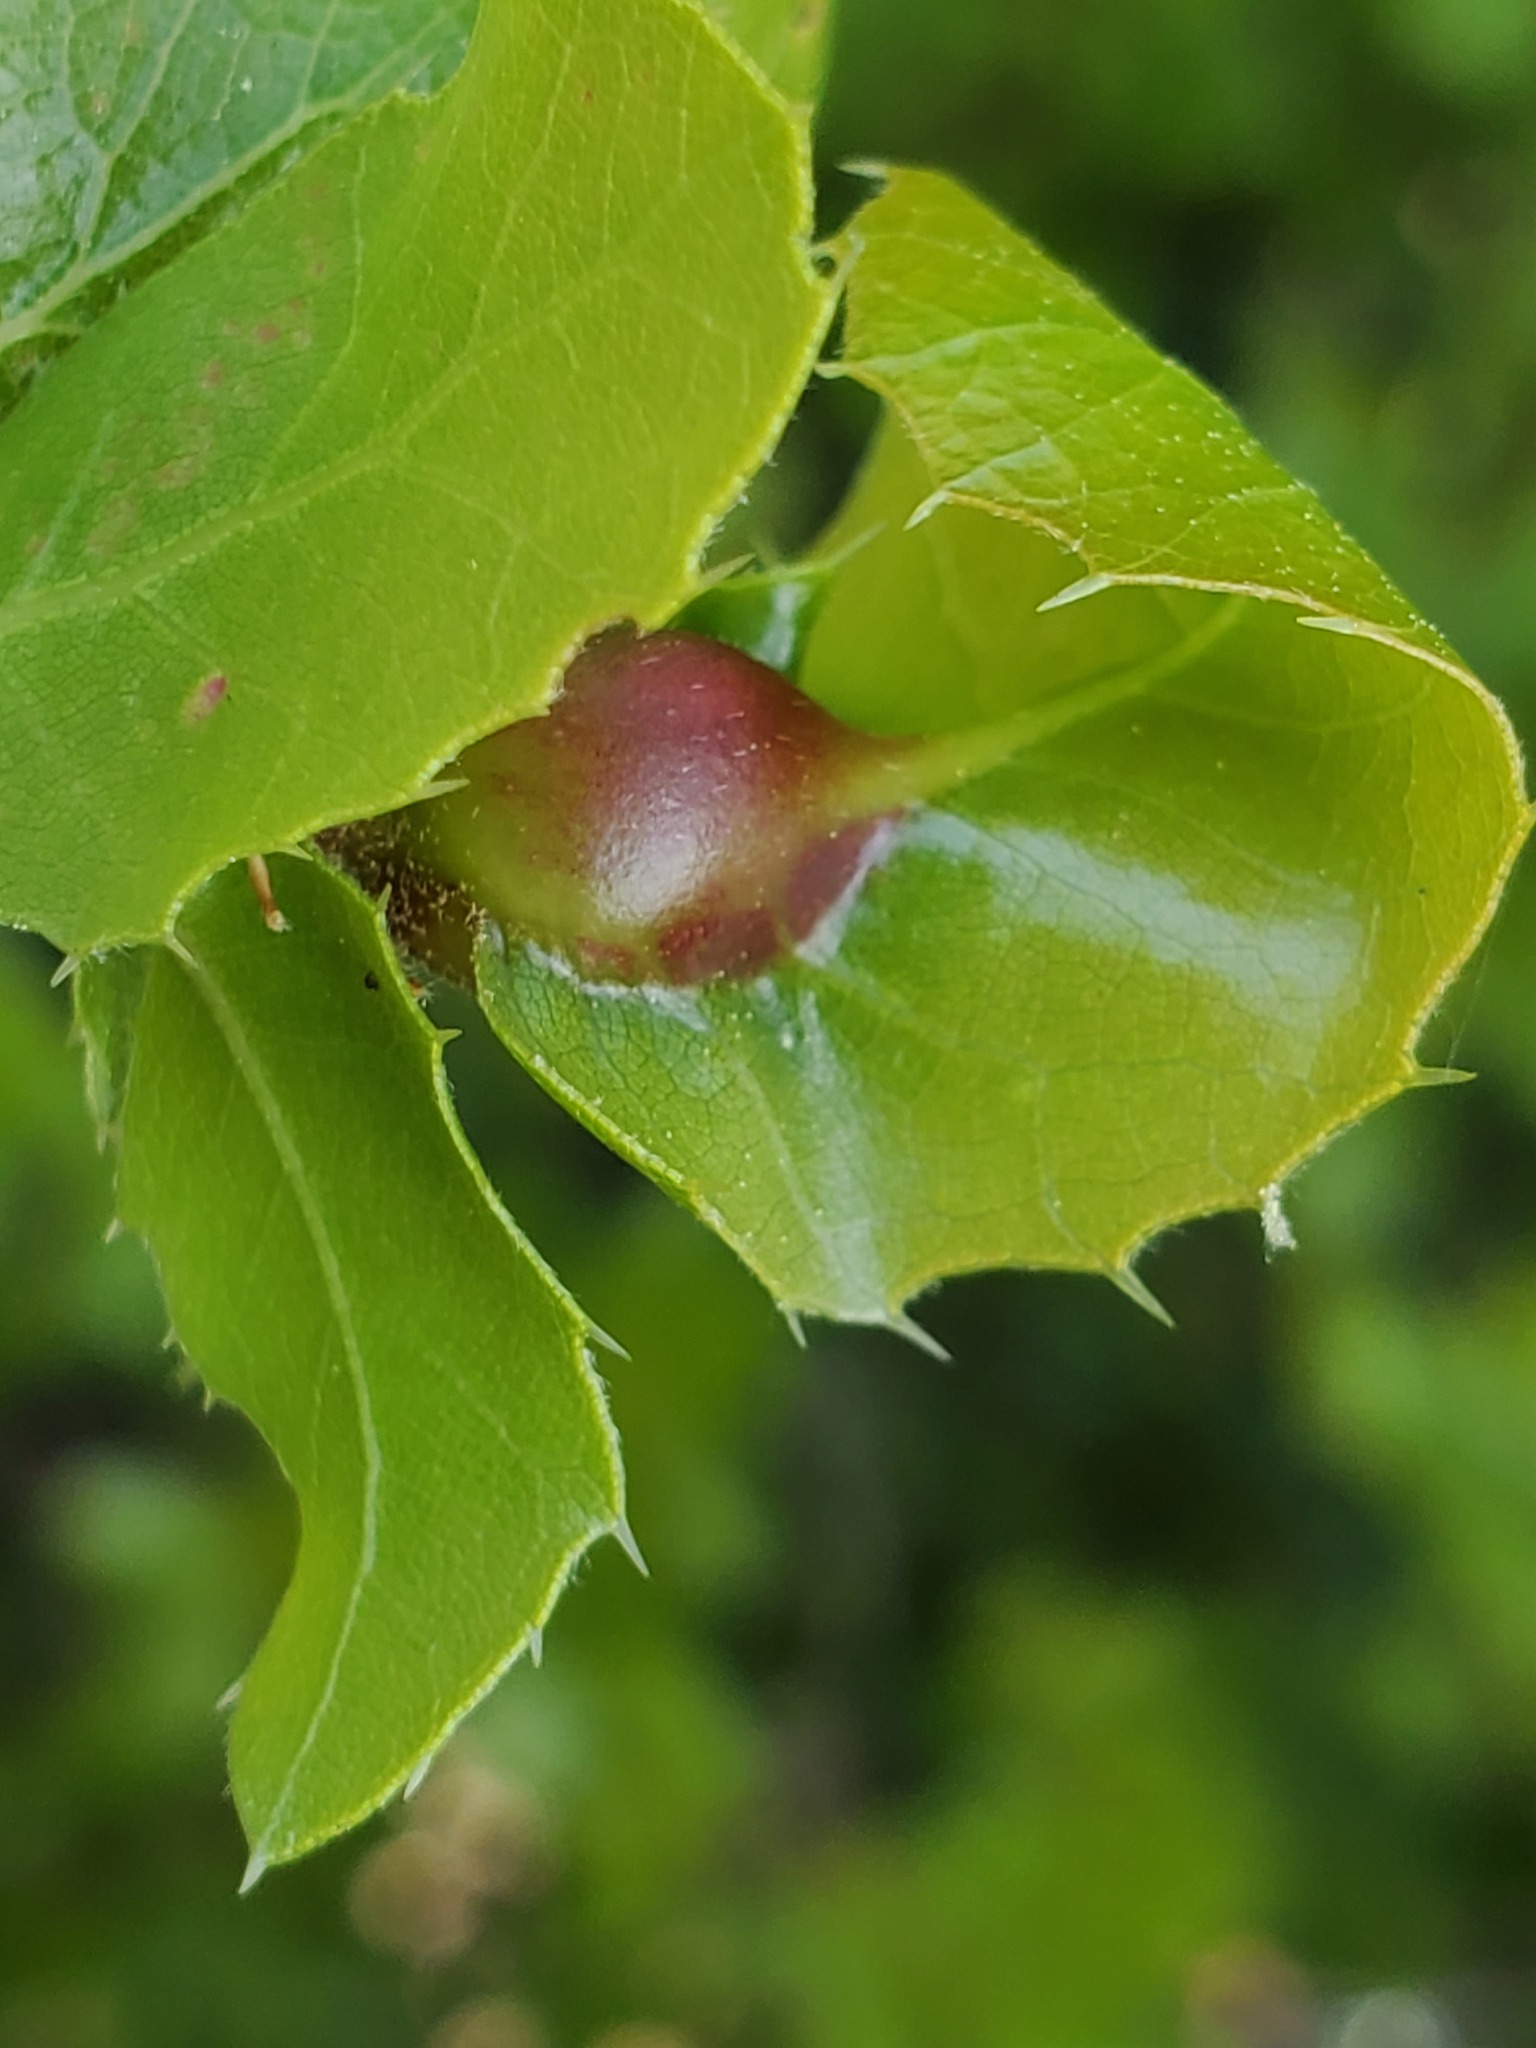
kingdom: Animalia
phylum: Arthropoda
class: Insecta
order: Hymenoptera
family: Cynipidae
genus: Melikaiella
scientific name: Melikaiella
